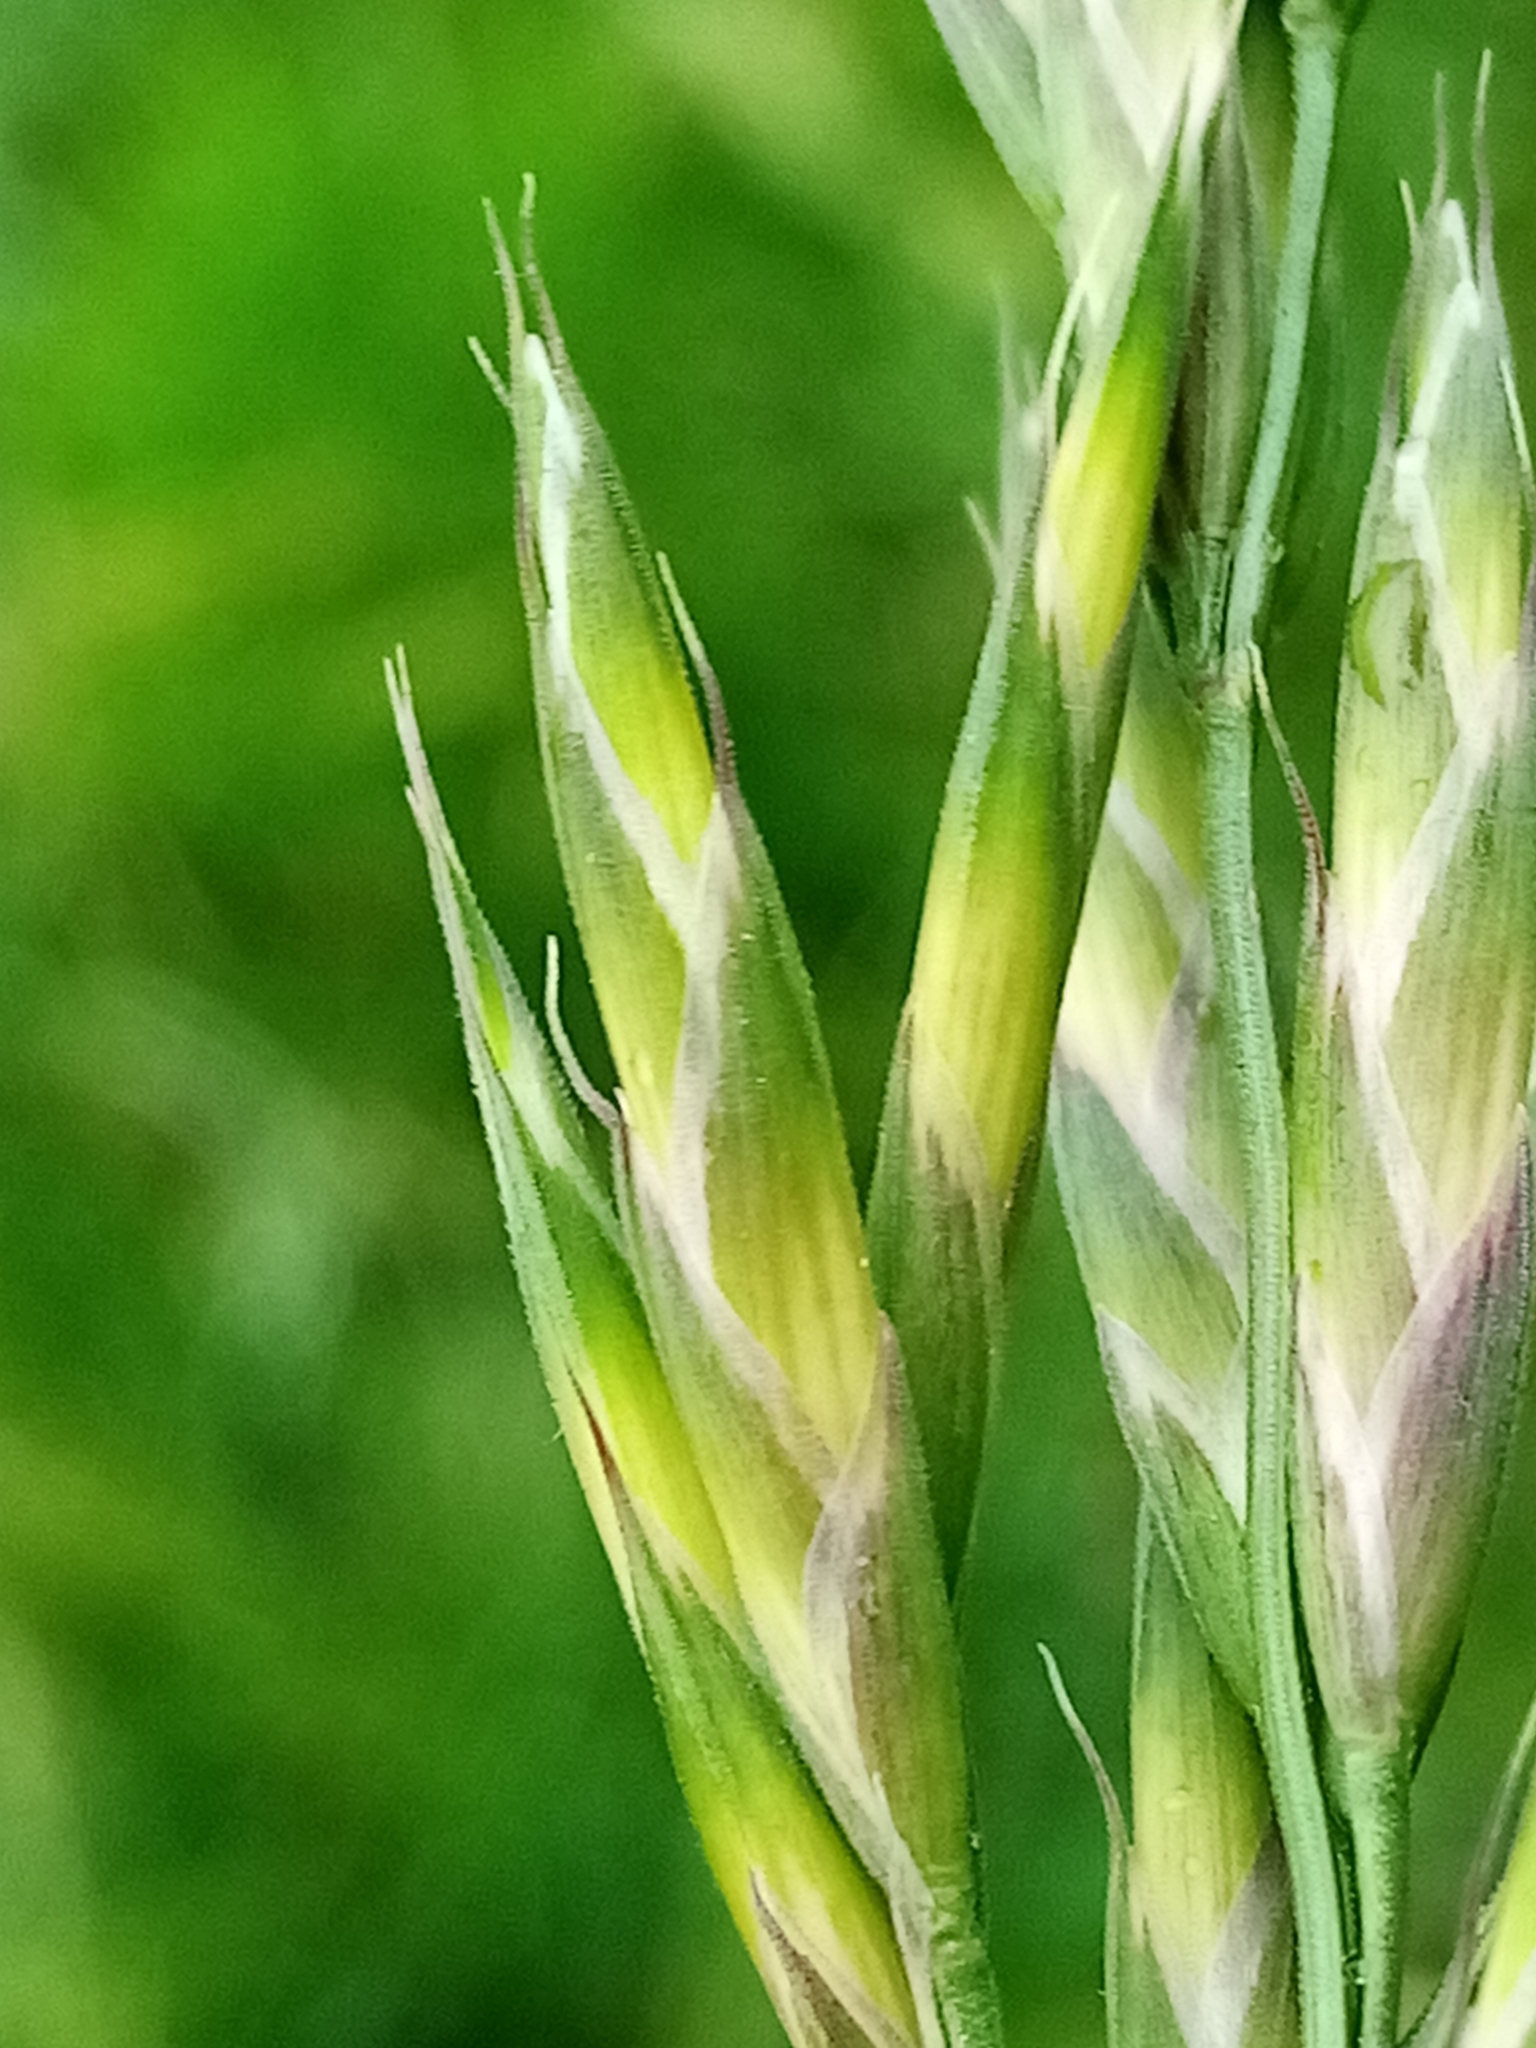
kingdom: Plantae
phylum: Tracheophyta
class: Liliopsida
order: Poales
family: Poaceae
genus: Bromus
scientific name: Bromus cebadilla
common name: Southern brome
